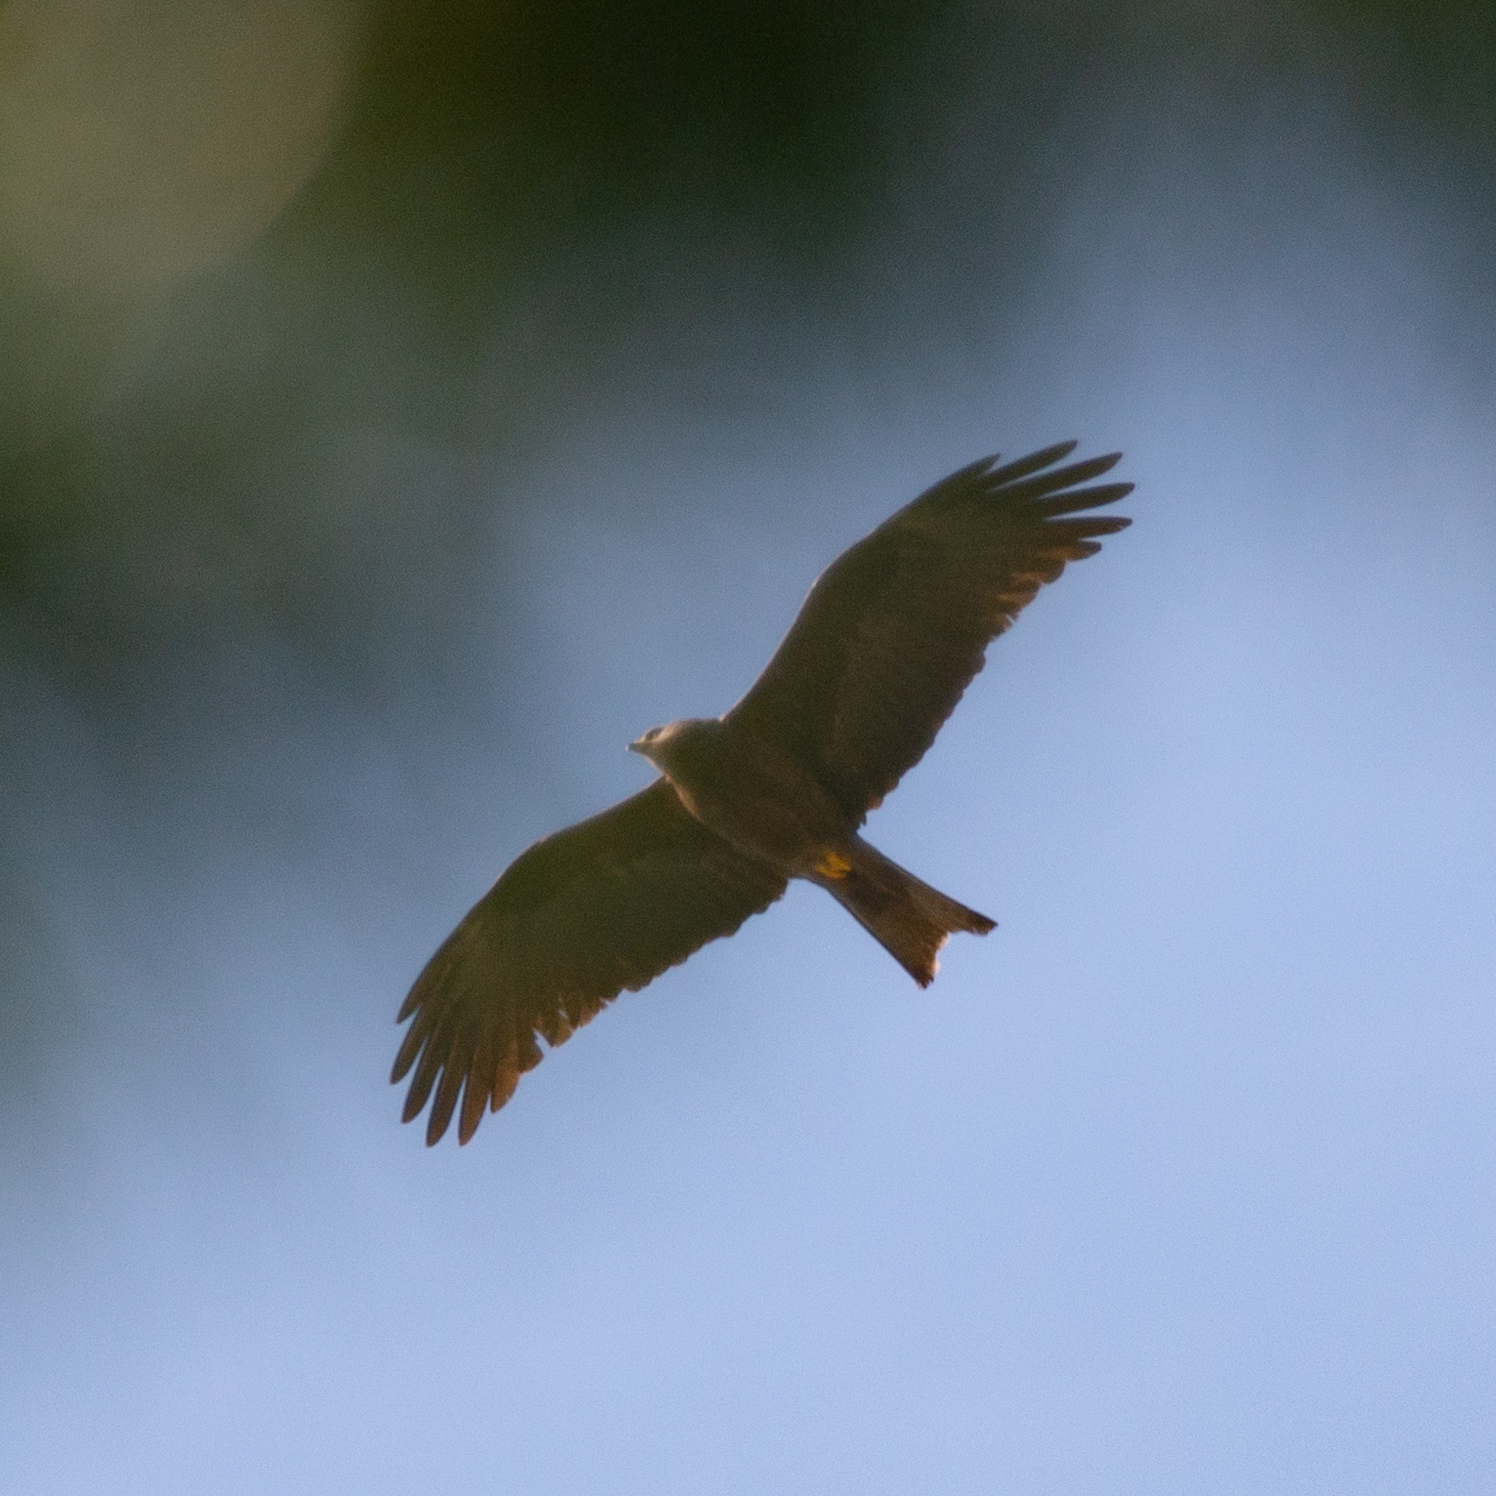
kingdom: Animalia
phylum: Chordata
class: Aves
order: Accipitriformes
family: Accipitridae
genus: Milvus
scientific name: Milvus migrans
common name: Black kite
